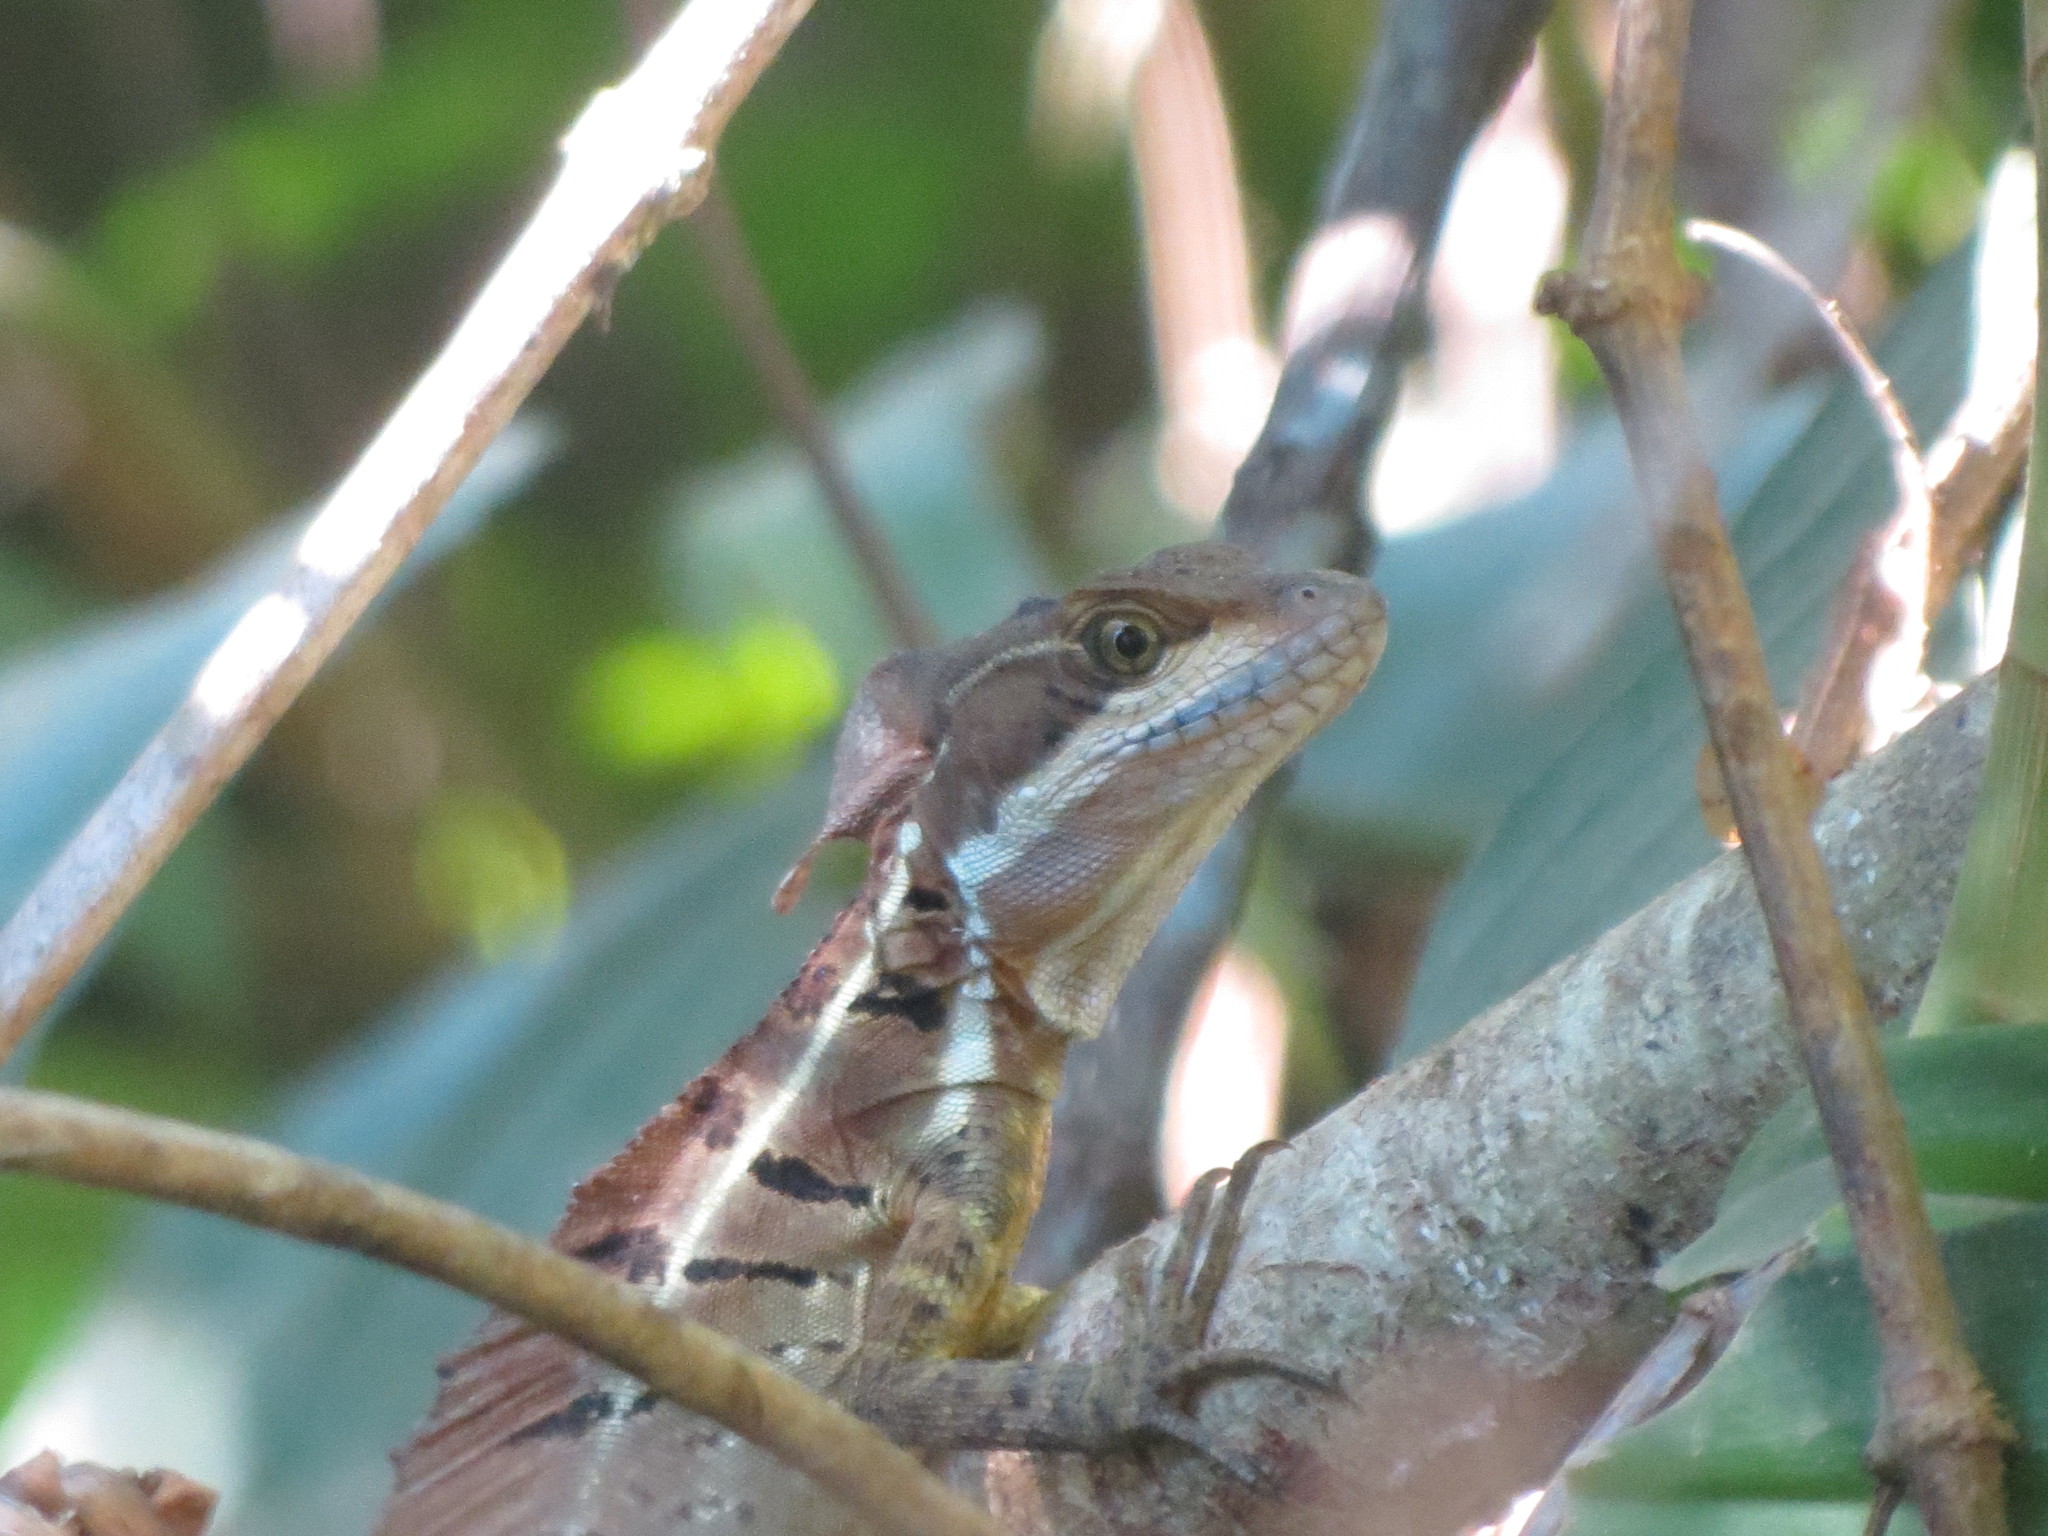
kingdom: Animalia
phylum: Chordata
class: Squamata
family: Corytophanidae
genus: Basiliscus
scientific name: Basiliscus basiliscus
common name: Common basilisk
